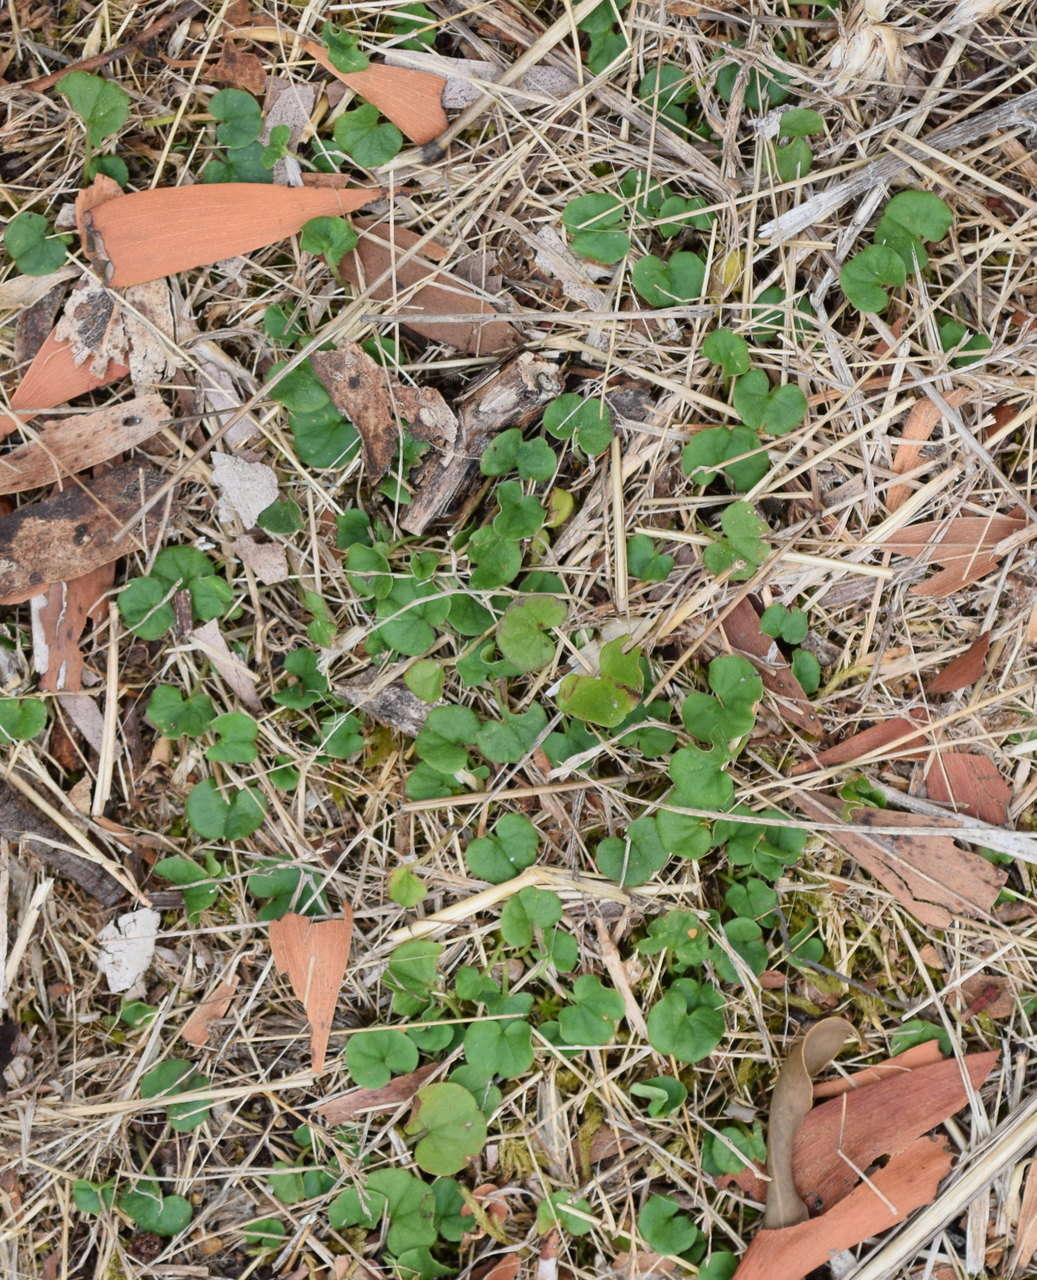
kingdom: Plantae
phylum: Tracheophyta
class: Magnoliopsida
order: Solanales
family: Convolvulaceae
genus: Dichondra
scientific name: Dichondra repens
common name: Kidneyweed
